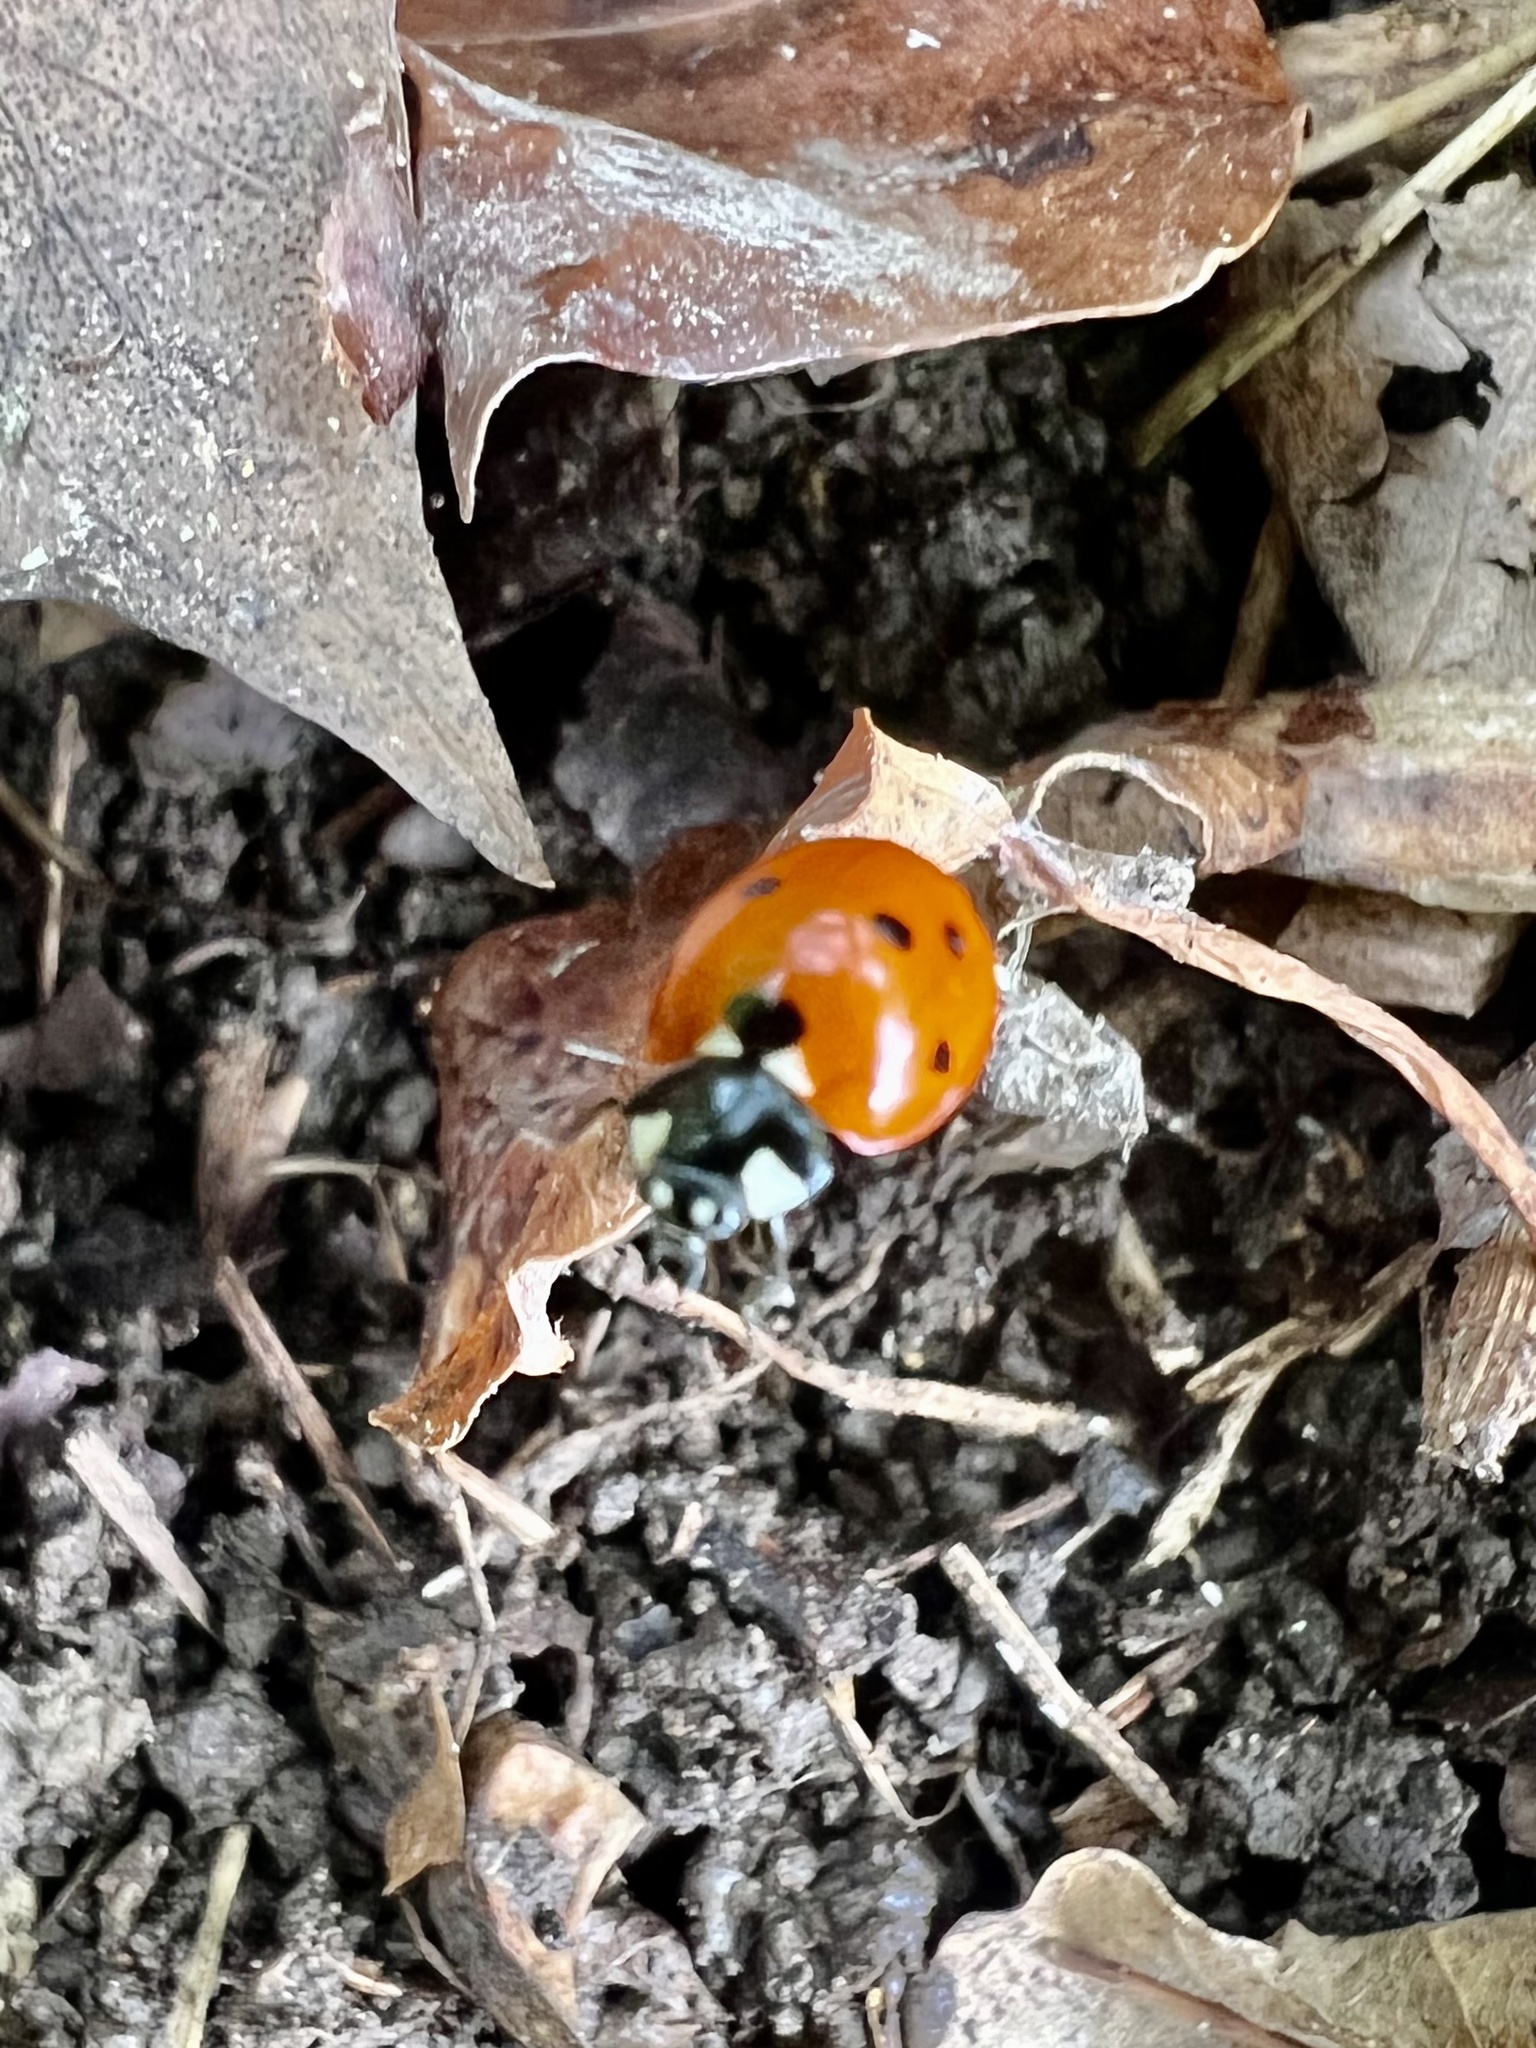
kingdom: Animalia
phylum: Arthropoda
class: Insecta
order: Coleoptera
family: Coccinellidae
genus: Coccinella
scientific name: Coccinella septempunctata
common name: Sevenspotted lady beetle
